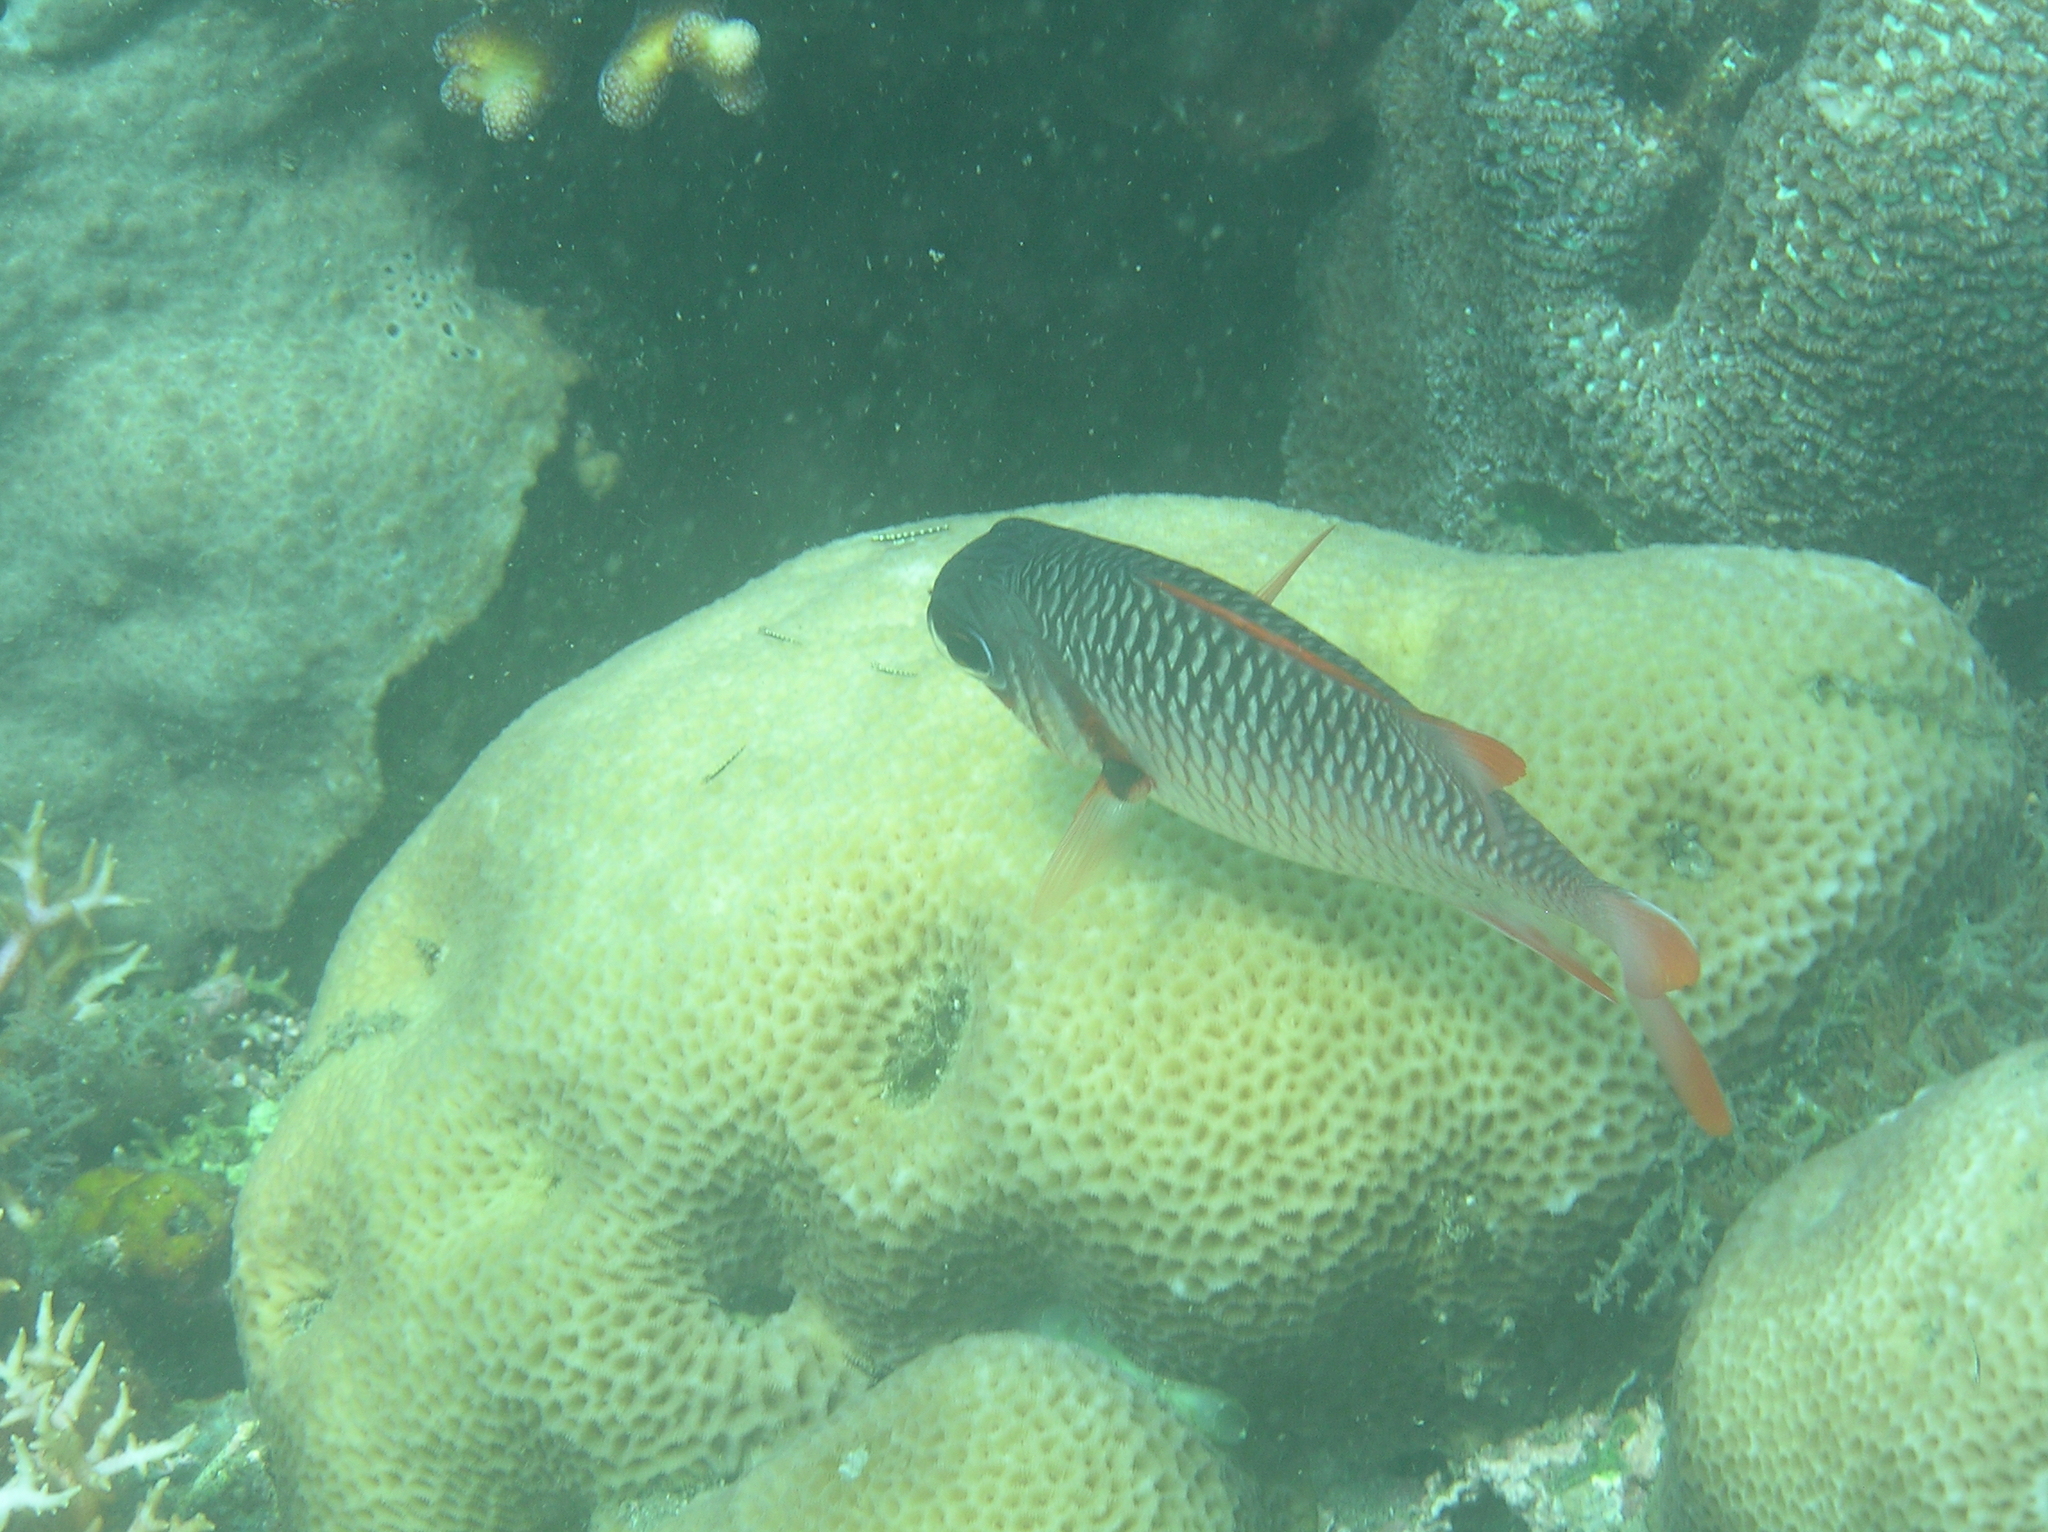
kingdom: Animalia
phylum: Chordata
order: Beryciformes
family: Holocentridae
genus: Myripristis
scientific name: Myripristis violacea
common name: Lattice soldierfish
